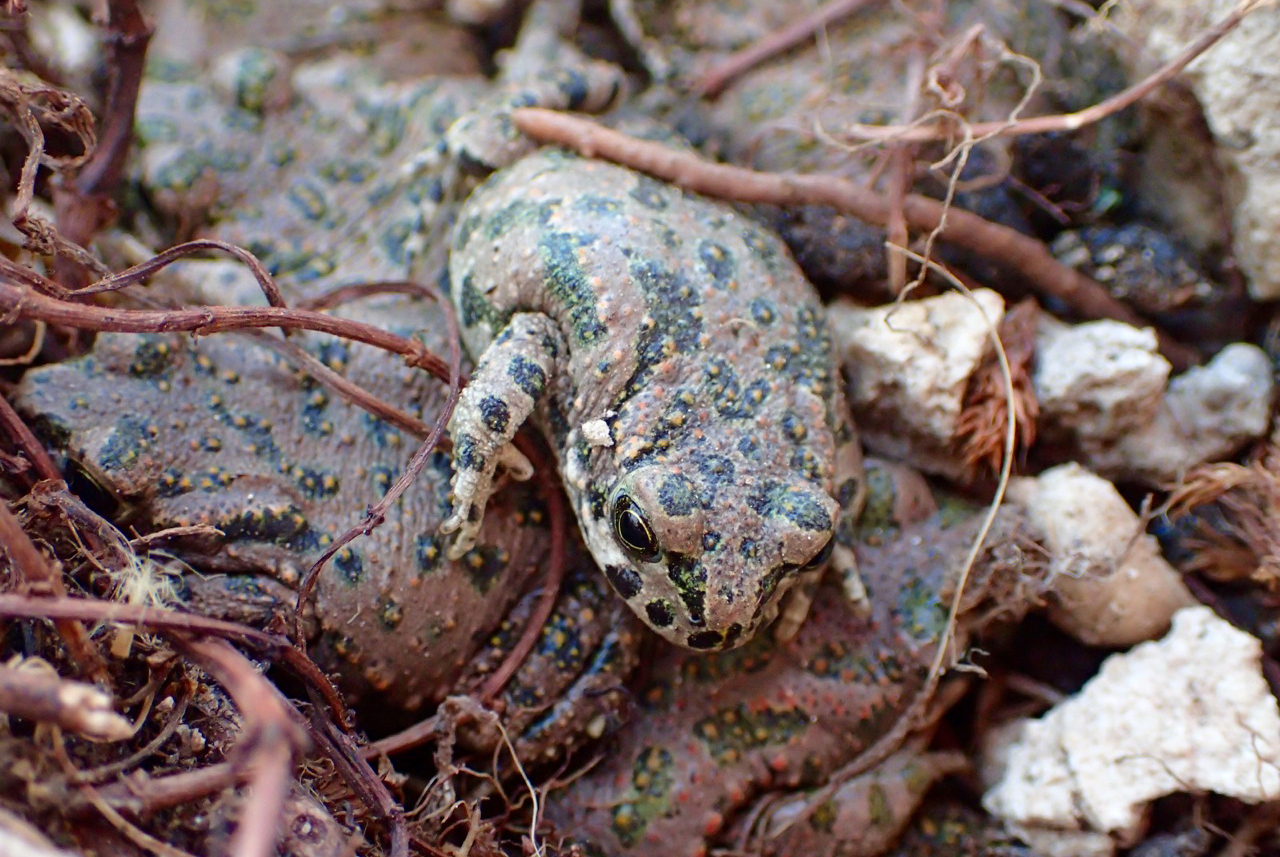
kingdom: Animalia
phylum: Chordata
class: Amphibia
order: Anura
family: Bufonidae
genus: Bufotes
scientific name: Bufotes viridis
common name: European green toad
